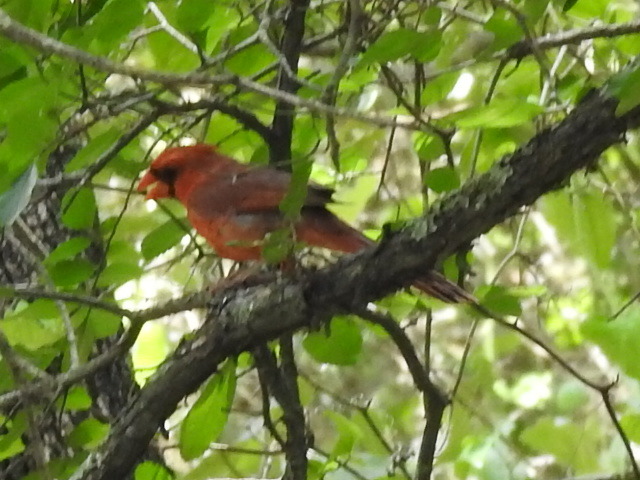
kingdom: Animalia
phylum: Chordata
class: Aves
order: Passeriformes
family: Cardinalidae
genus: Cardinalis
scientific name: Cardinalis cardinalis
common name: Northern cardinal
